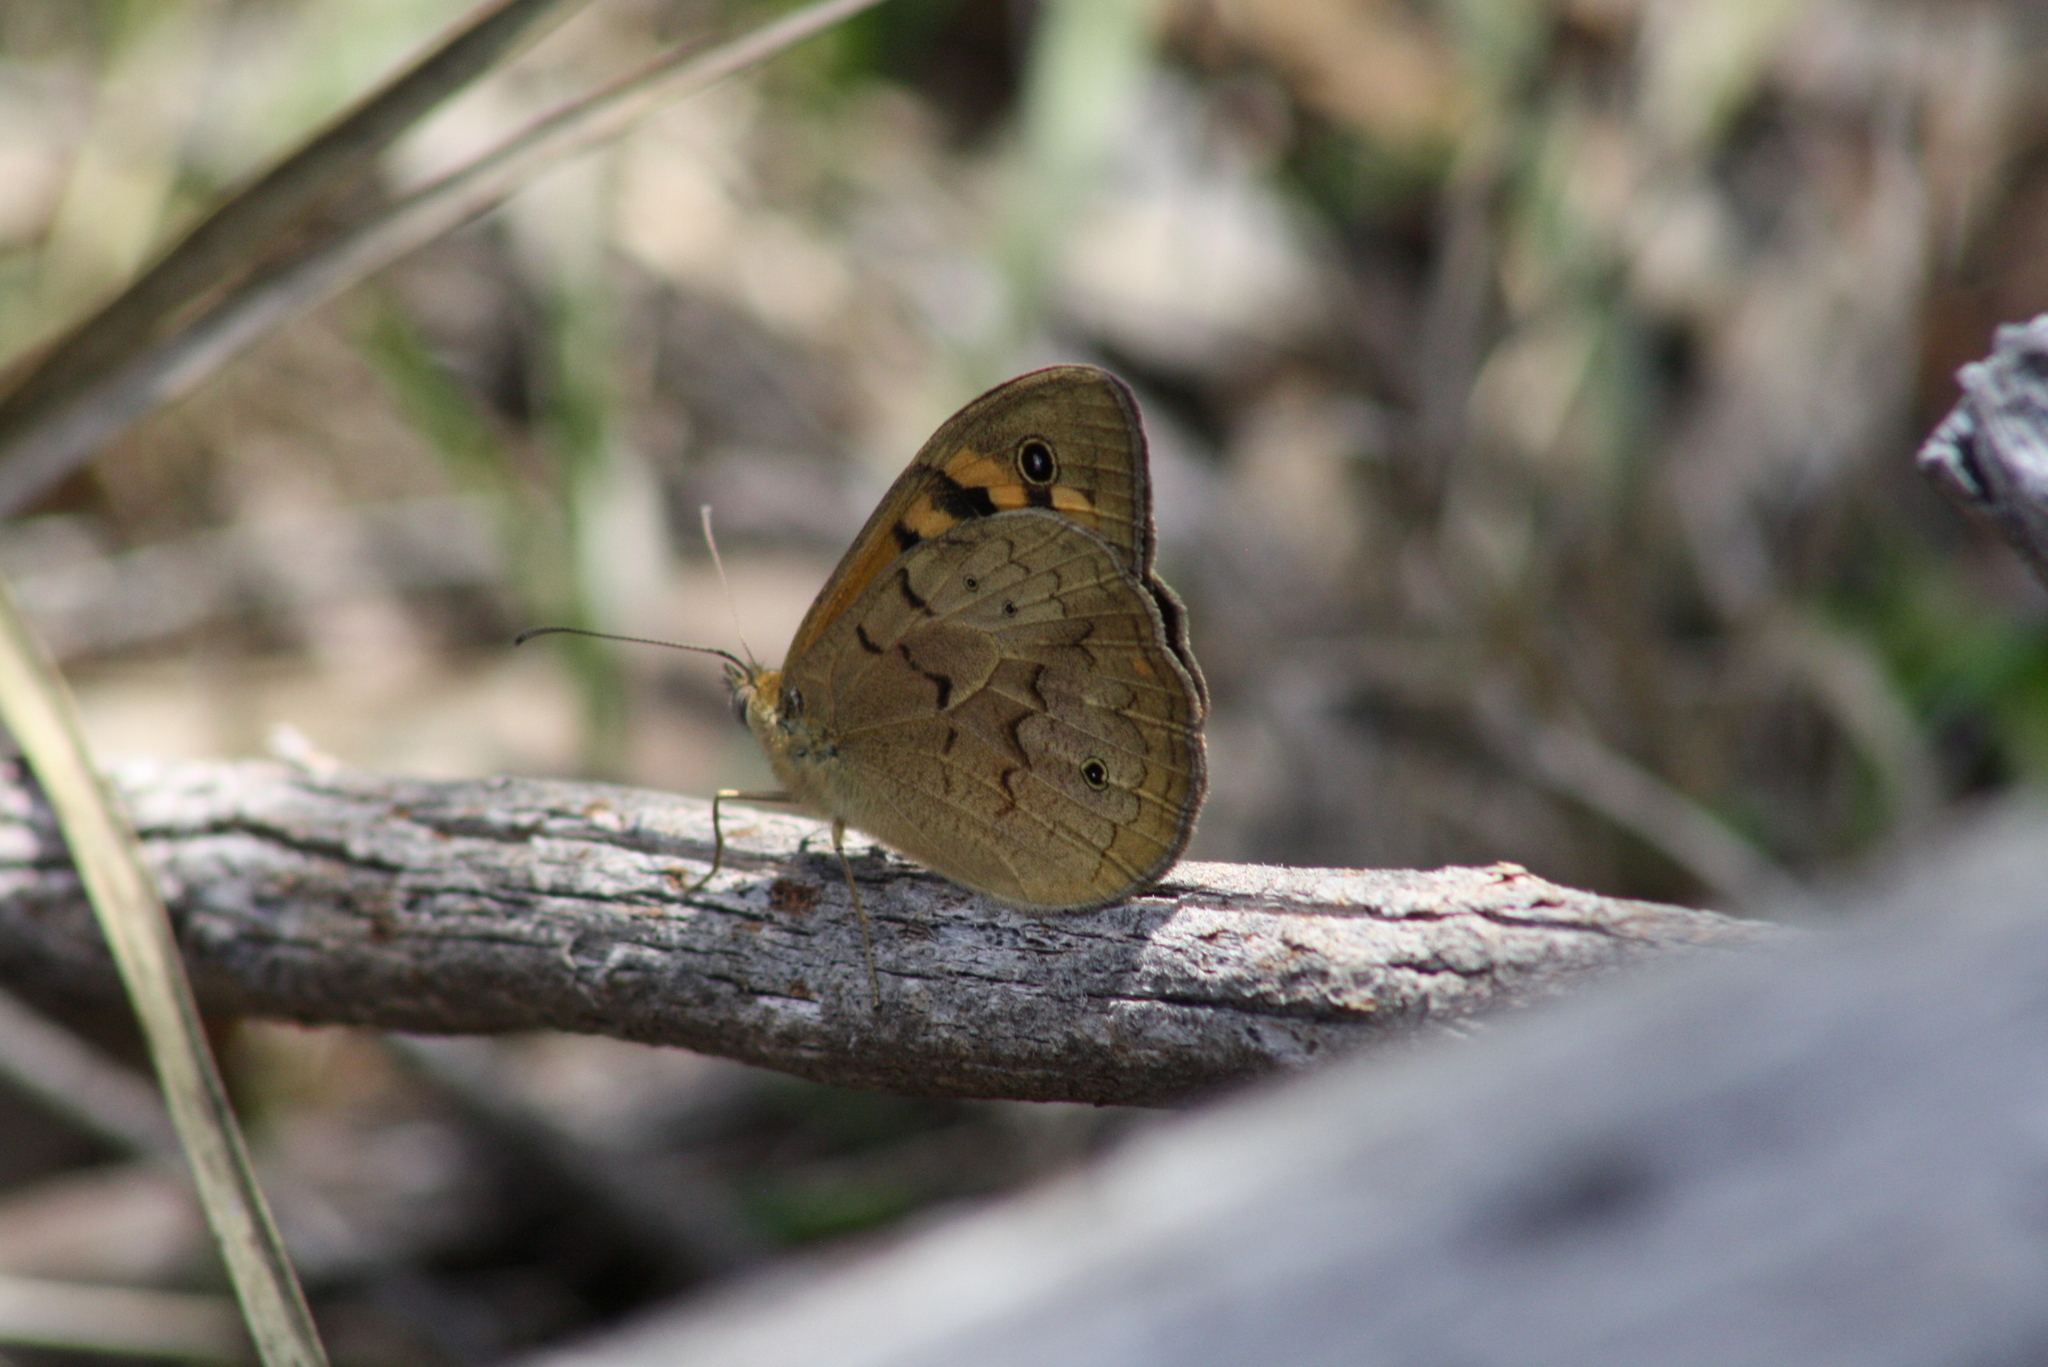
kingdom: Animalia
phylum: Arthropoda
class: Insecta
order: Lepidoptera
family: Nymphalidae
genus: Heteronympha
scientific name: Heteronympha merope
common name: Common brown
